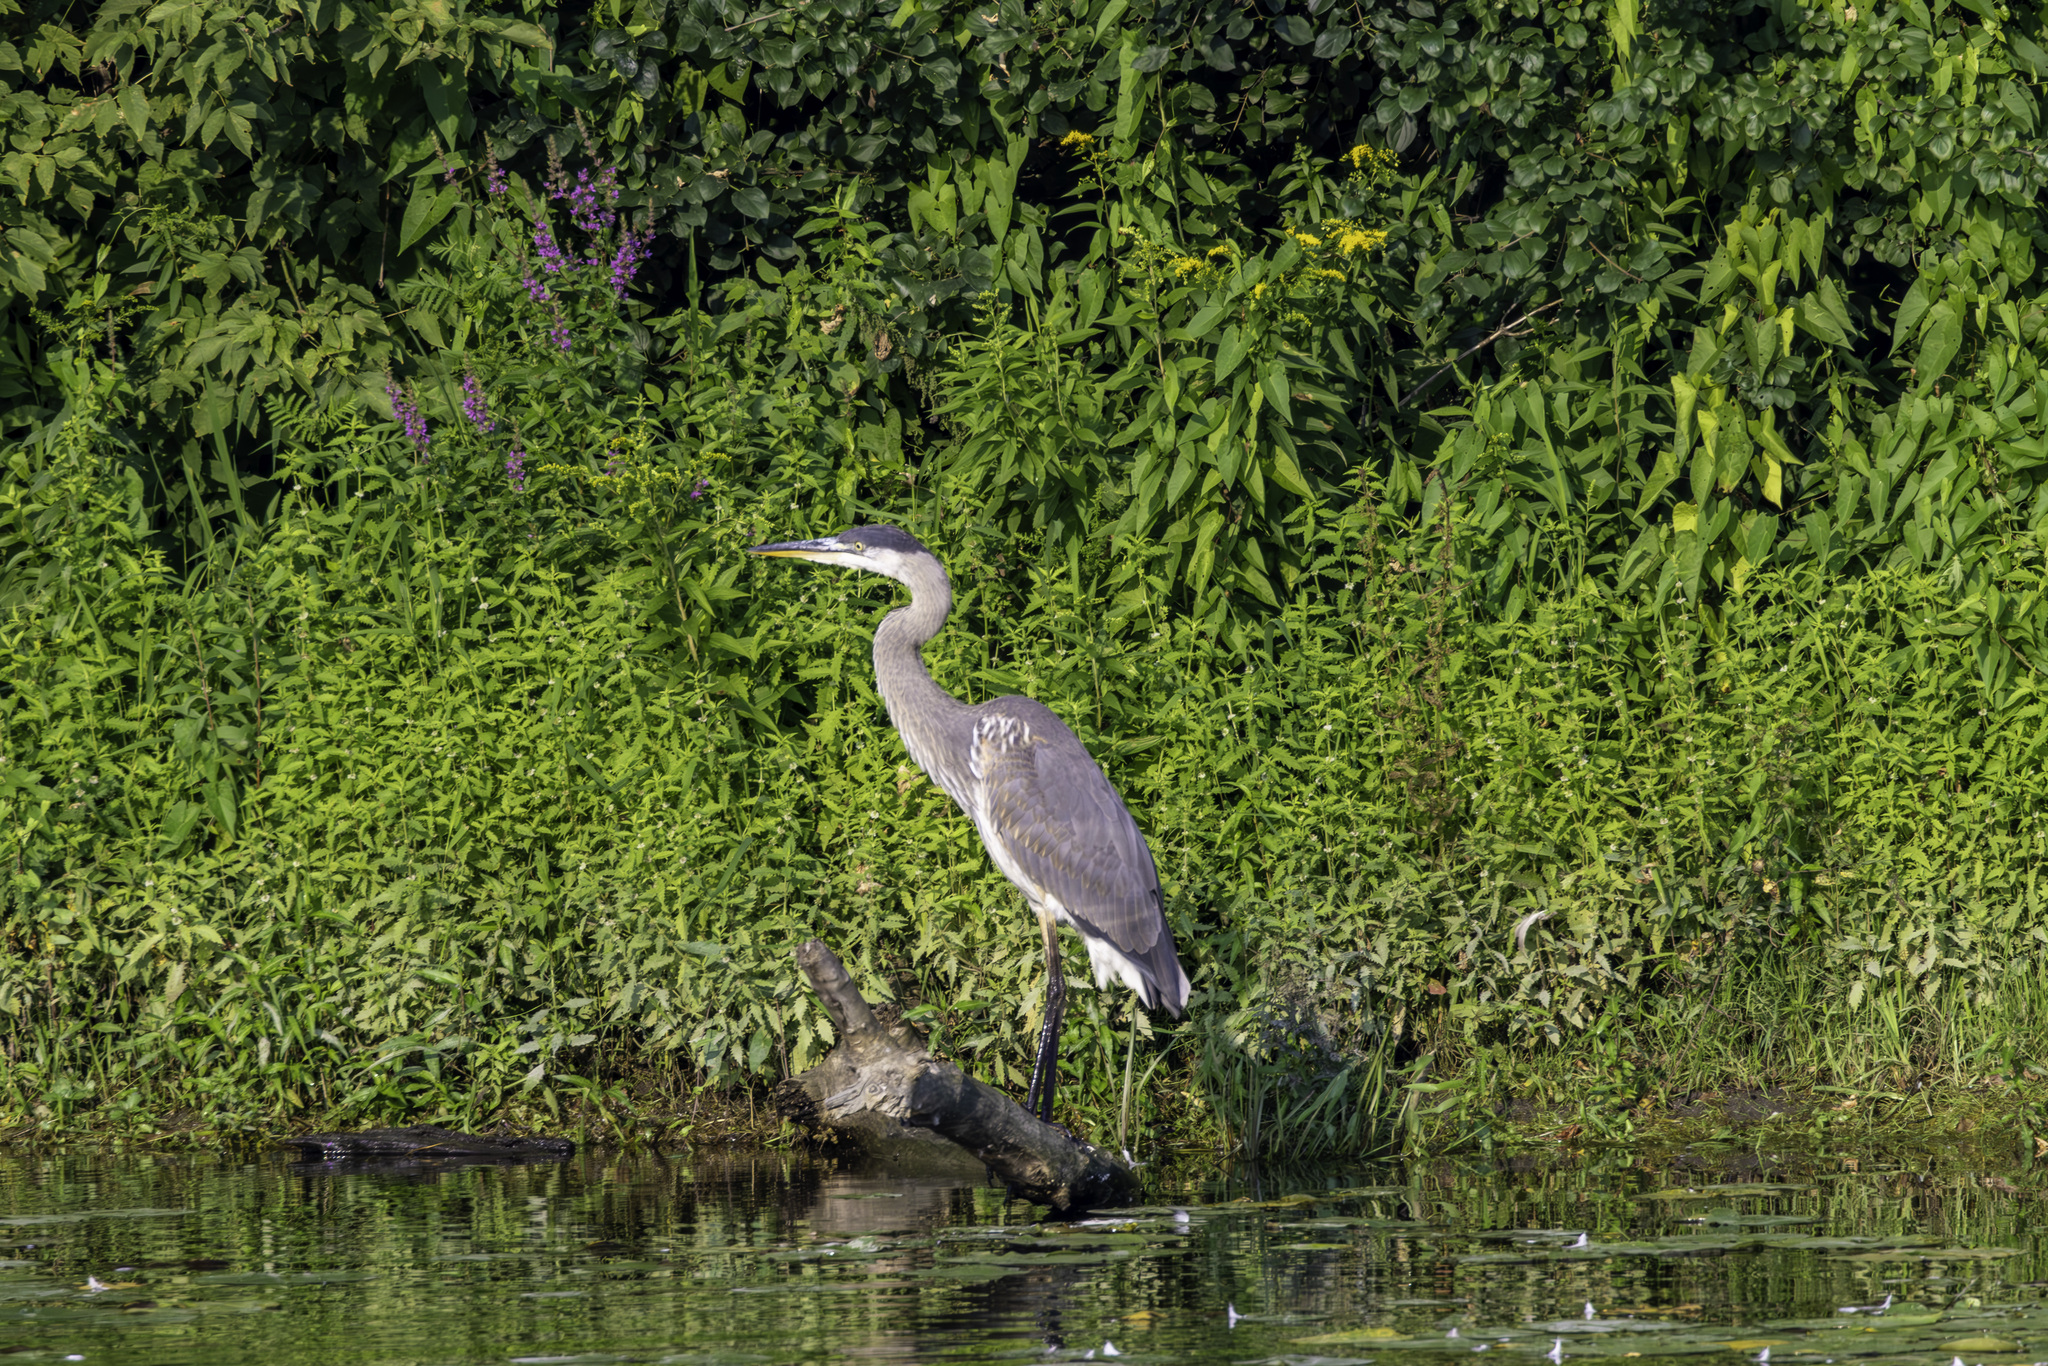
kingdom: Animalia
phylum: Chordata
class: Aves
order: Pelecaniformes
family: Ardeidae
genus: Ardea
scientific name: Ardea herodias
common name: Great blue heron
